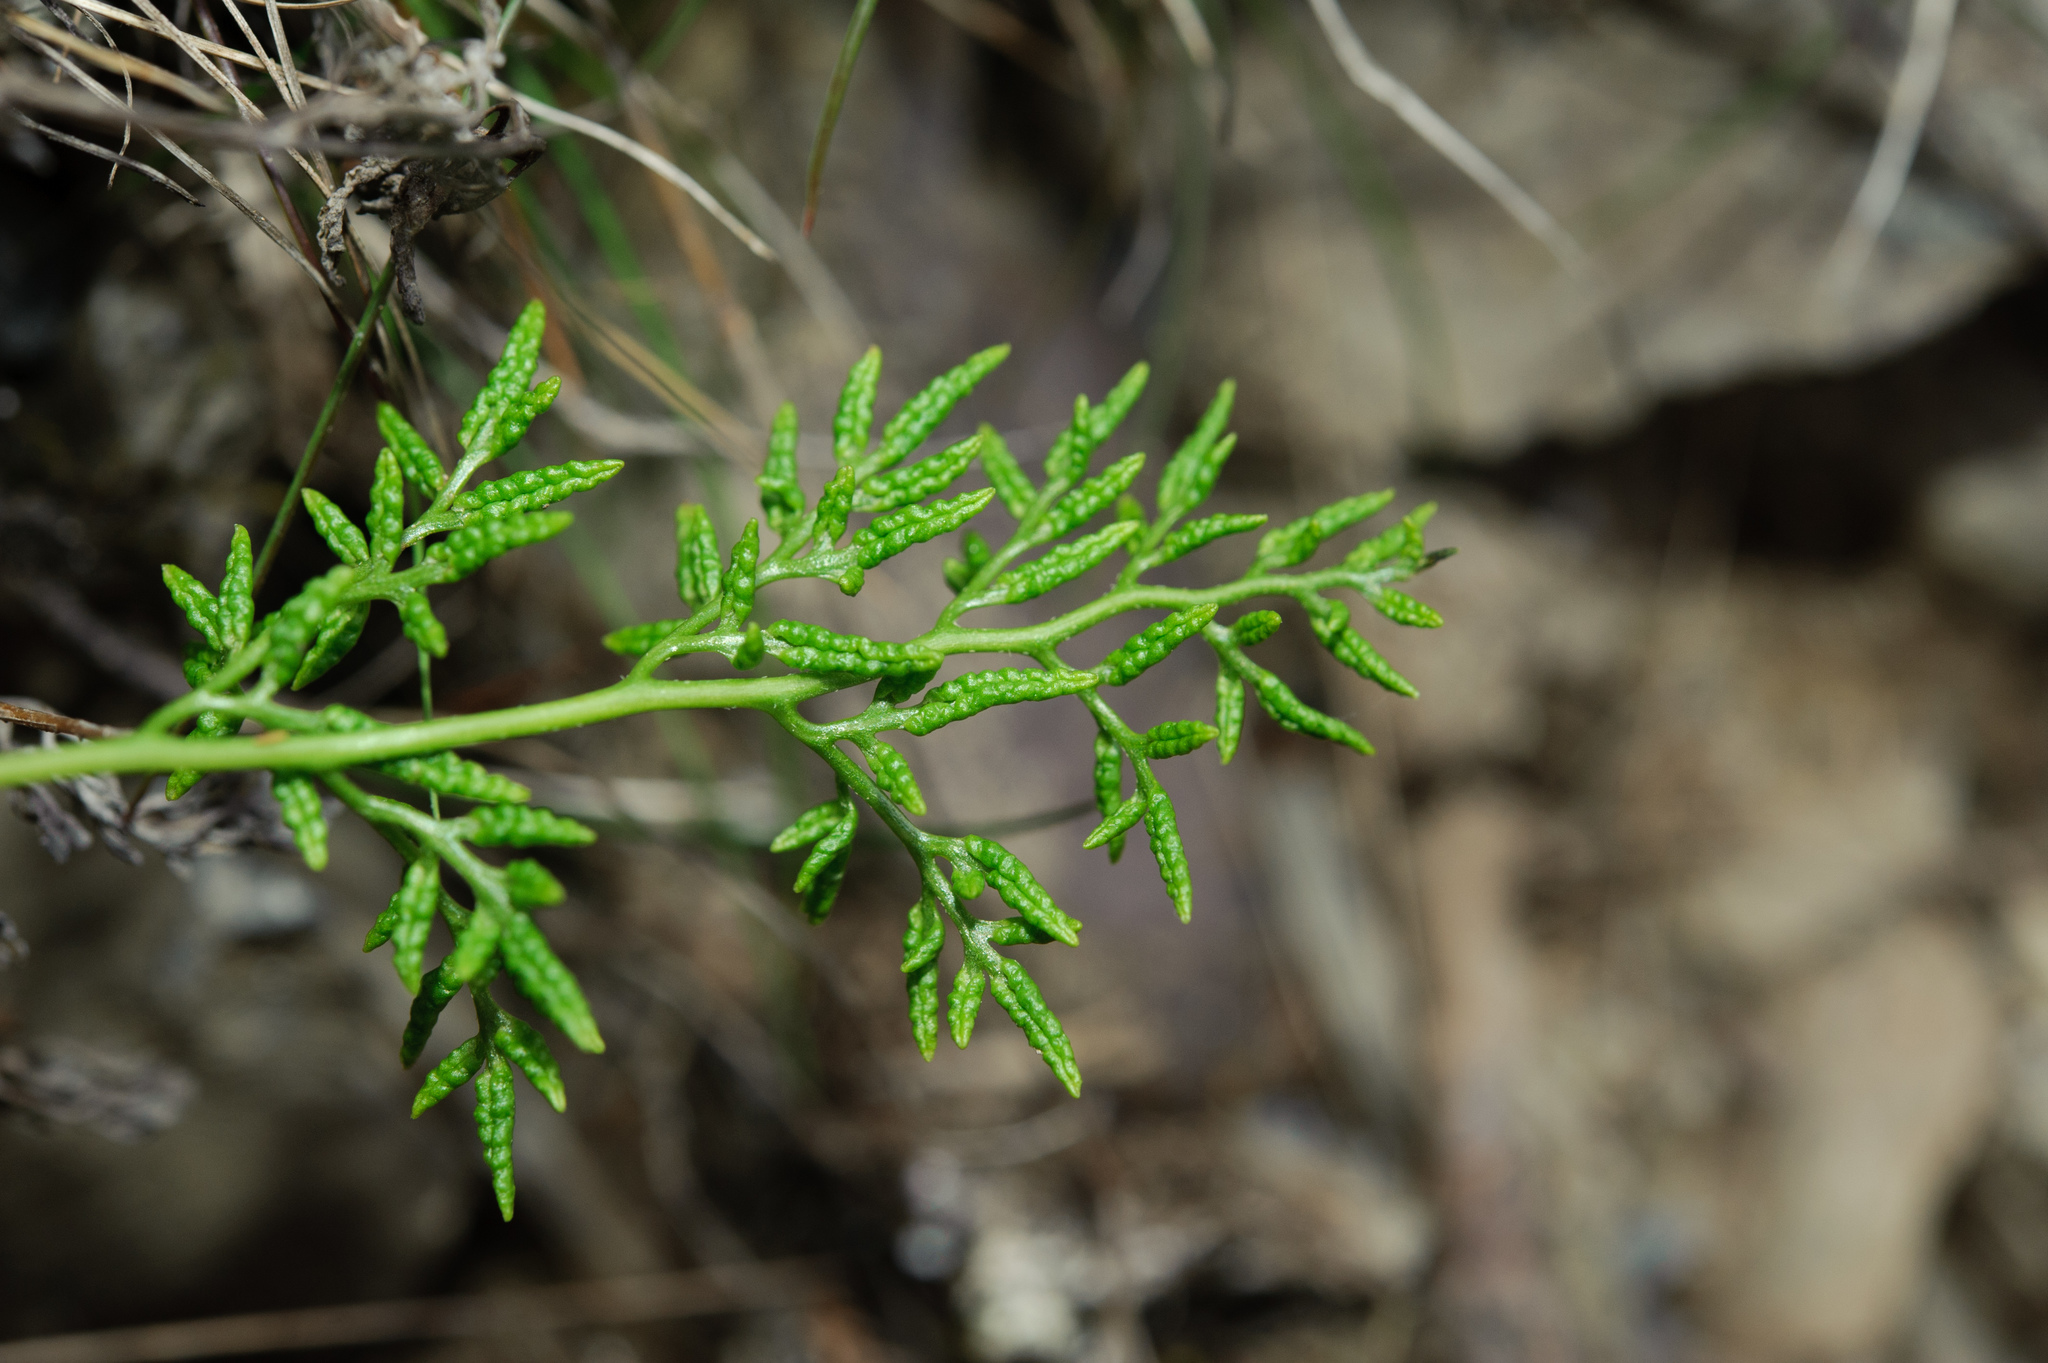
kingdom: Plantae
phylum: Tracheophyta
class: Polypodiopsida
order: Polypodiales
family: Pteridaceae
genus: Cryptogramma
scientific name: Cryptogramma brunoniana
